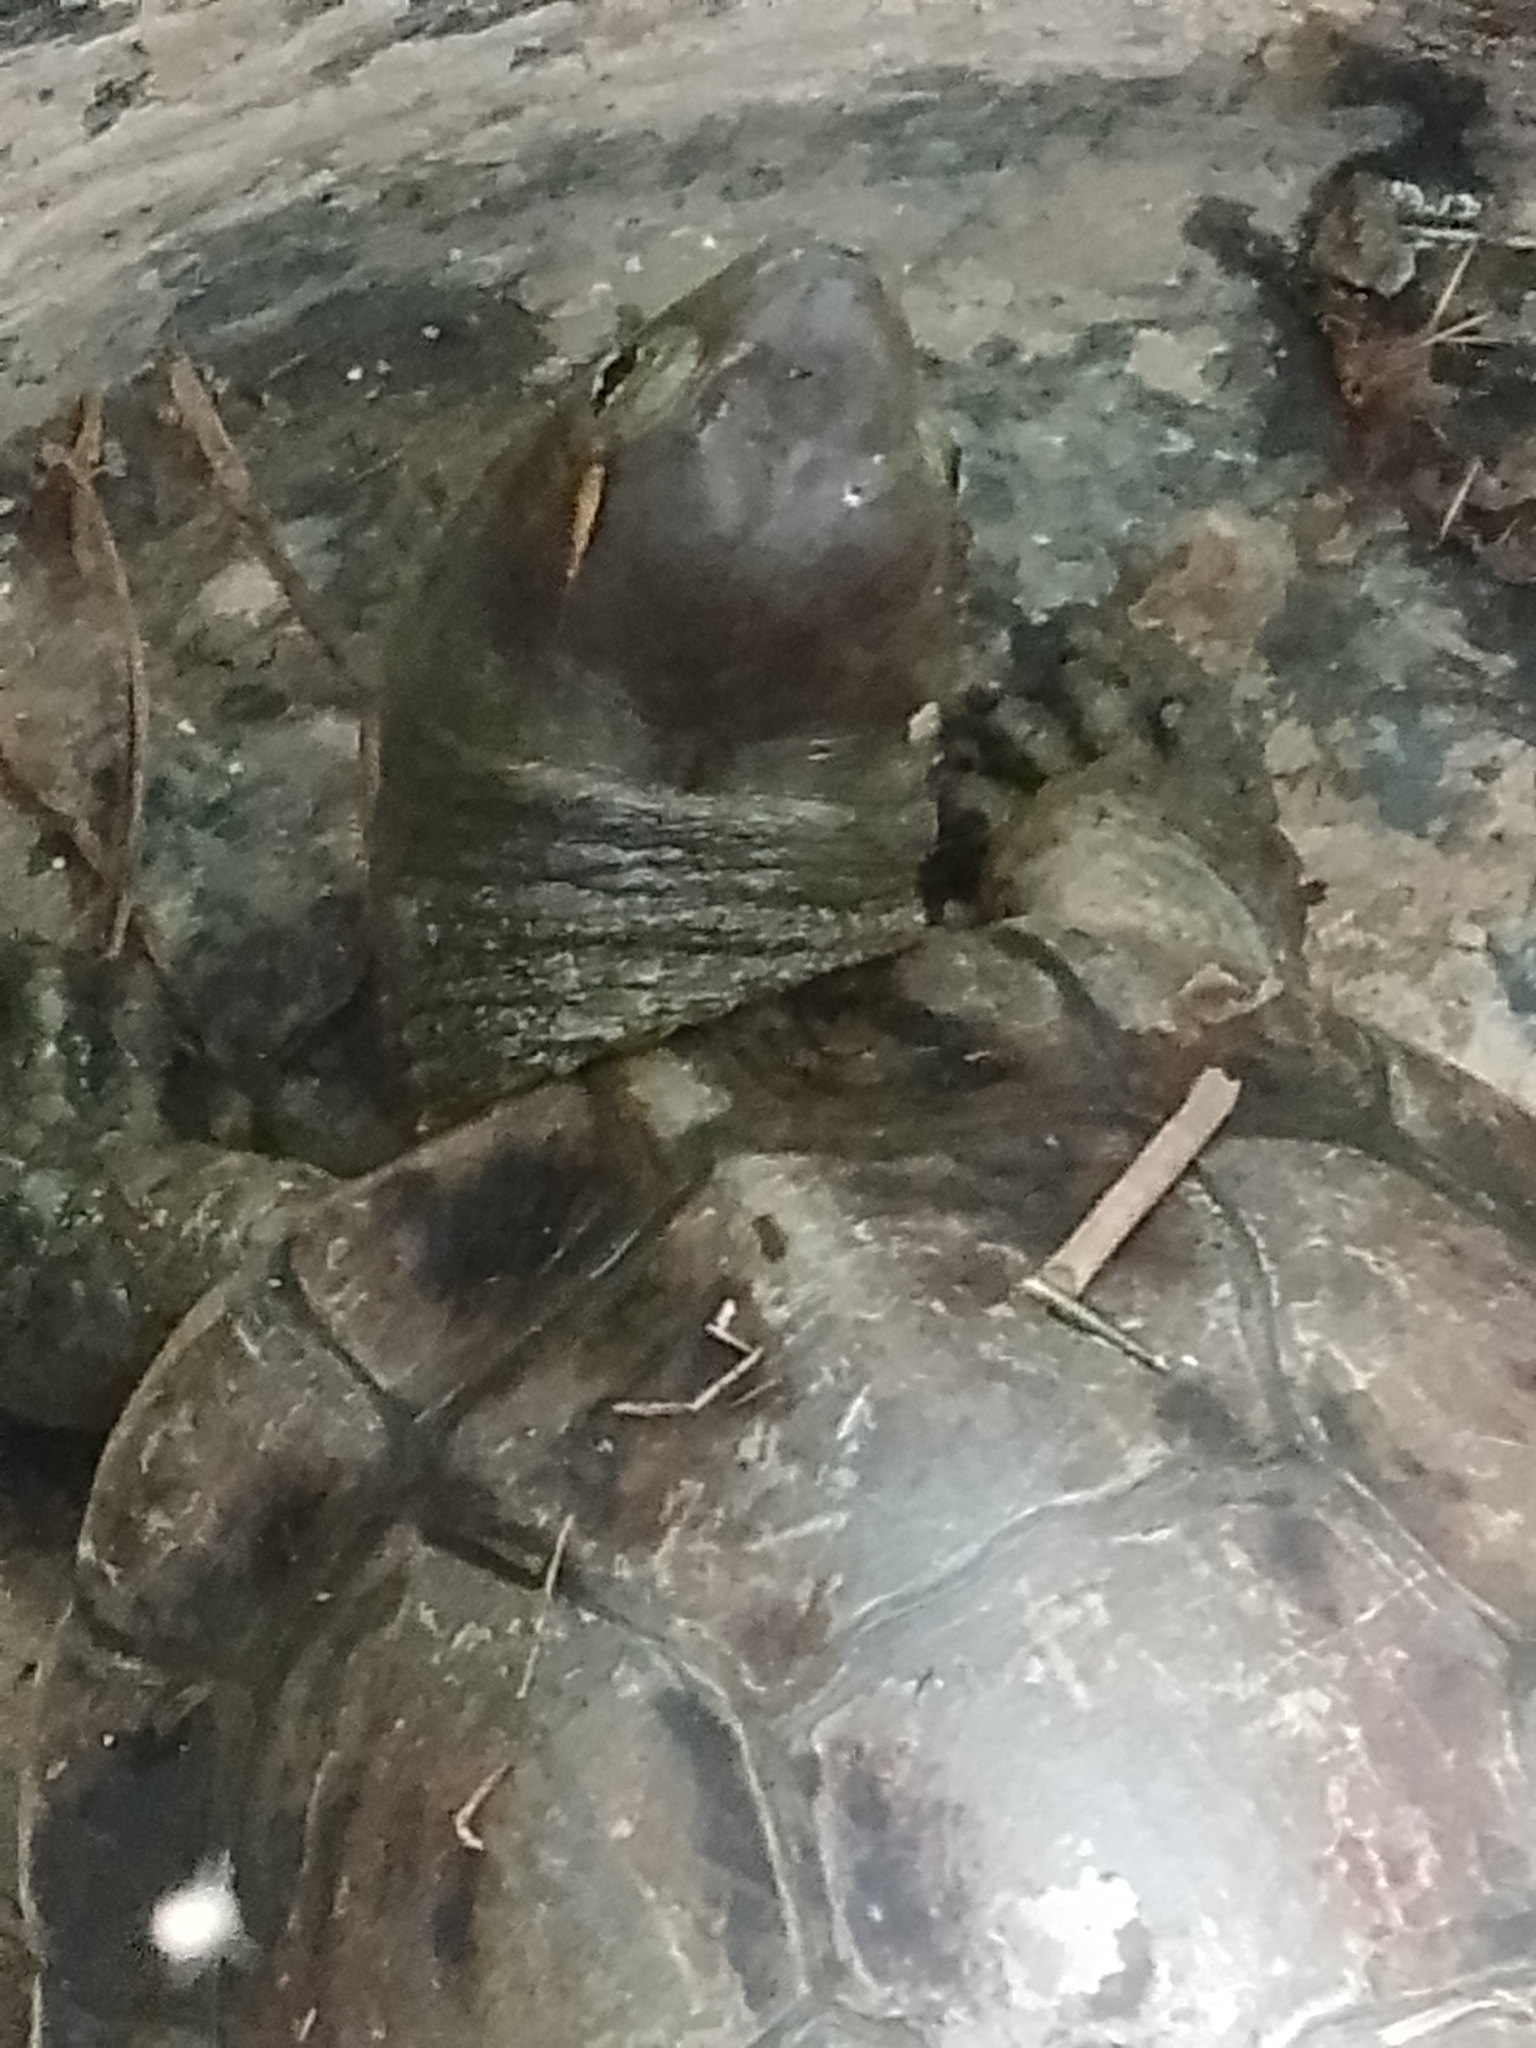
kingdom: Animalia
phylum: Chordata
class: Testudines
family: Geoemydidae
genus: Mauremys
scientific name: Mauremys leprosa
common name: Mediterranean pond turtle
